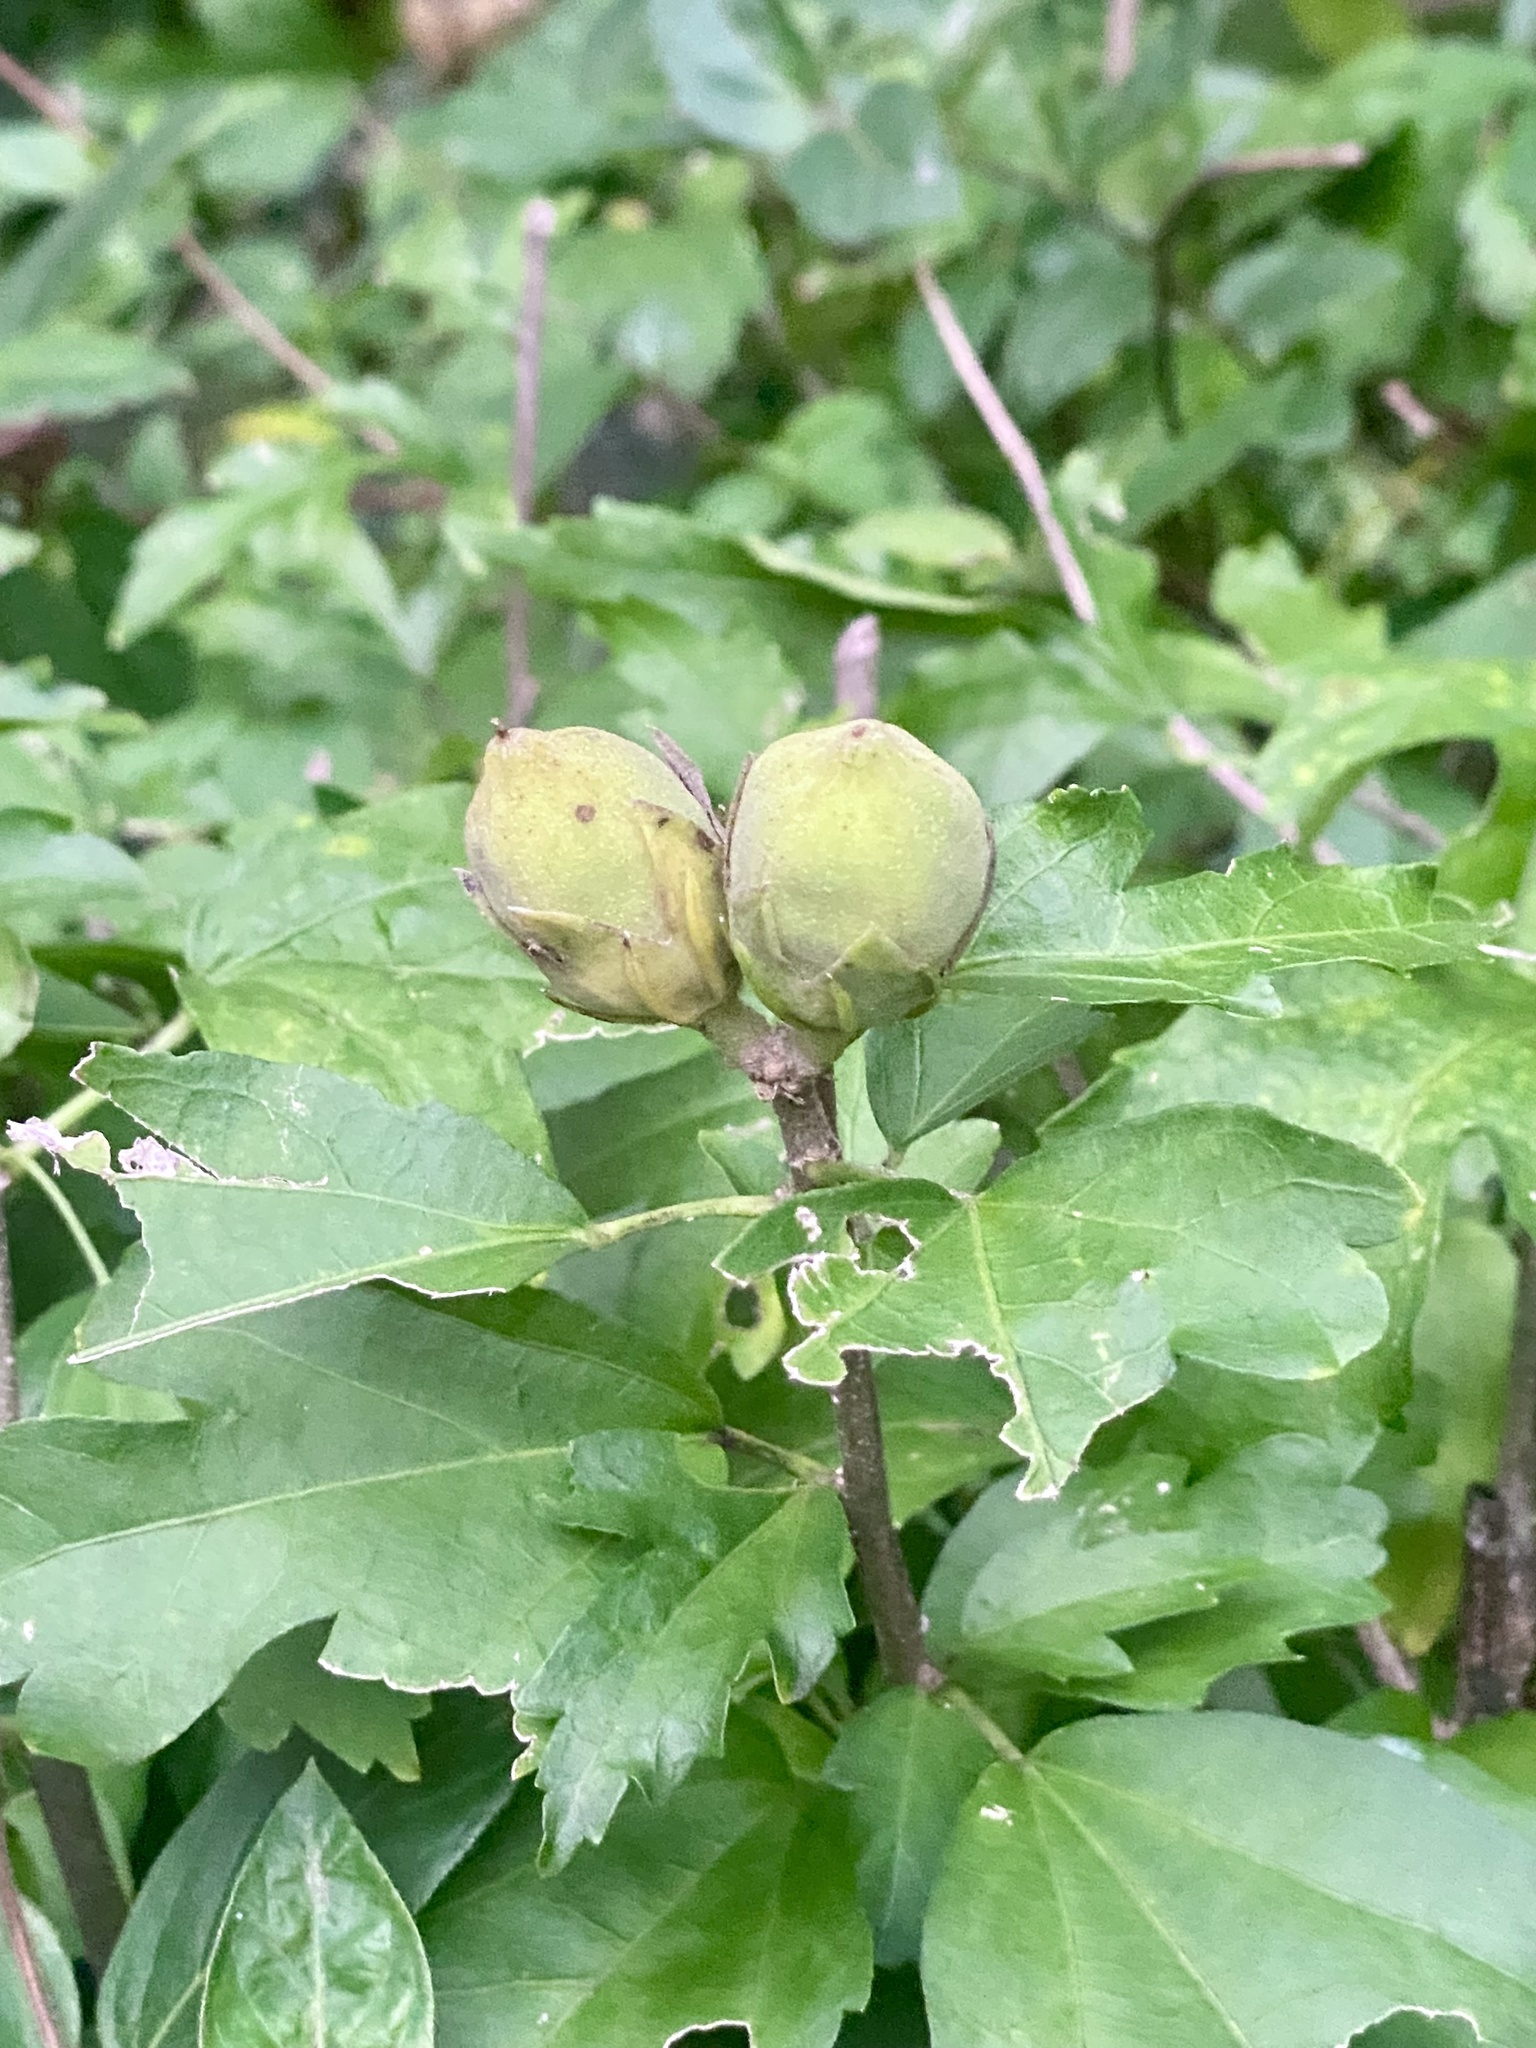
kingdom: Plantae
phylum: Tracheophyta
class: Magnoliopsida
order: Malvales
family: Malvaceae
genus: Hibiscus
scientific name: Hibiscus syriacus
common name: Syrian ketmia
